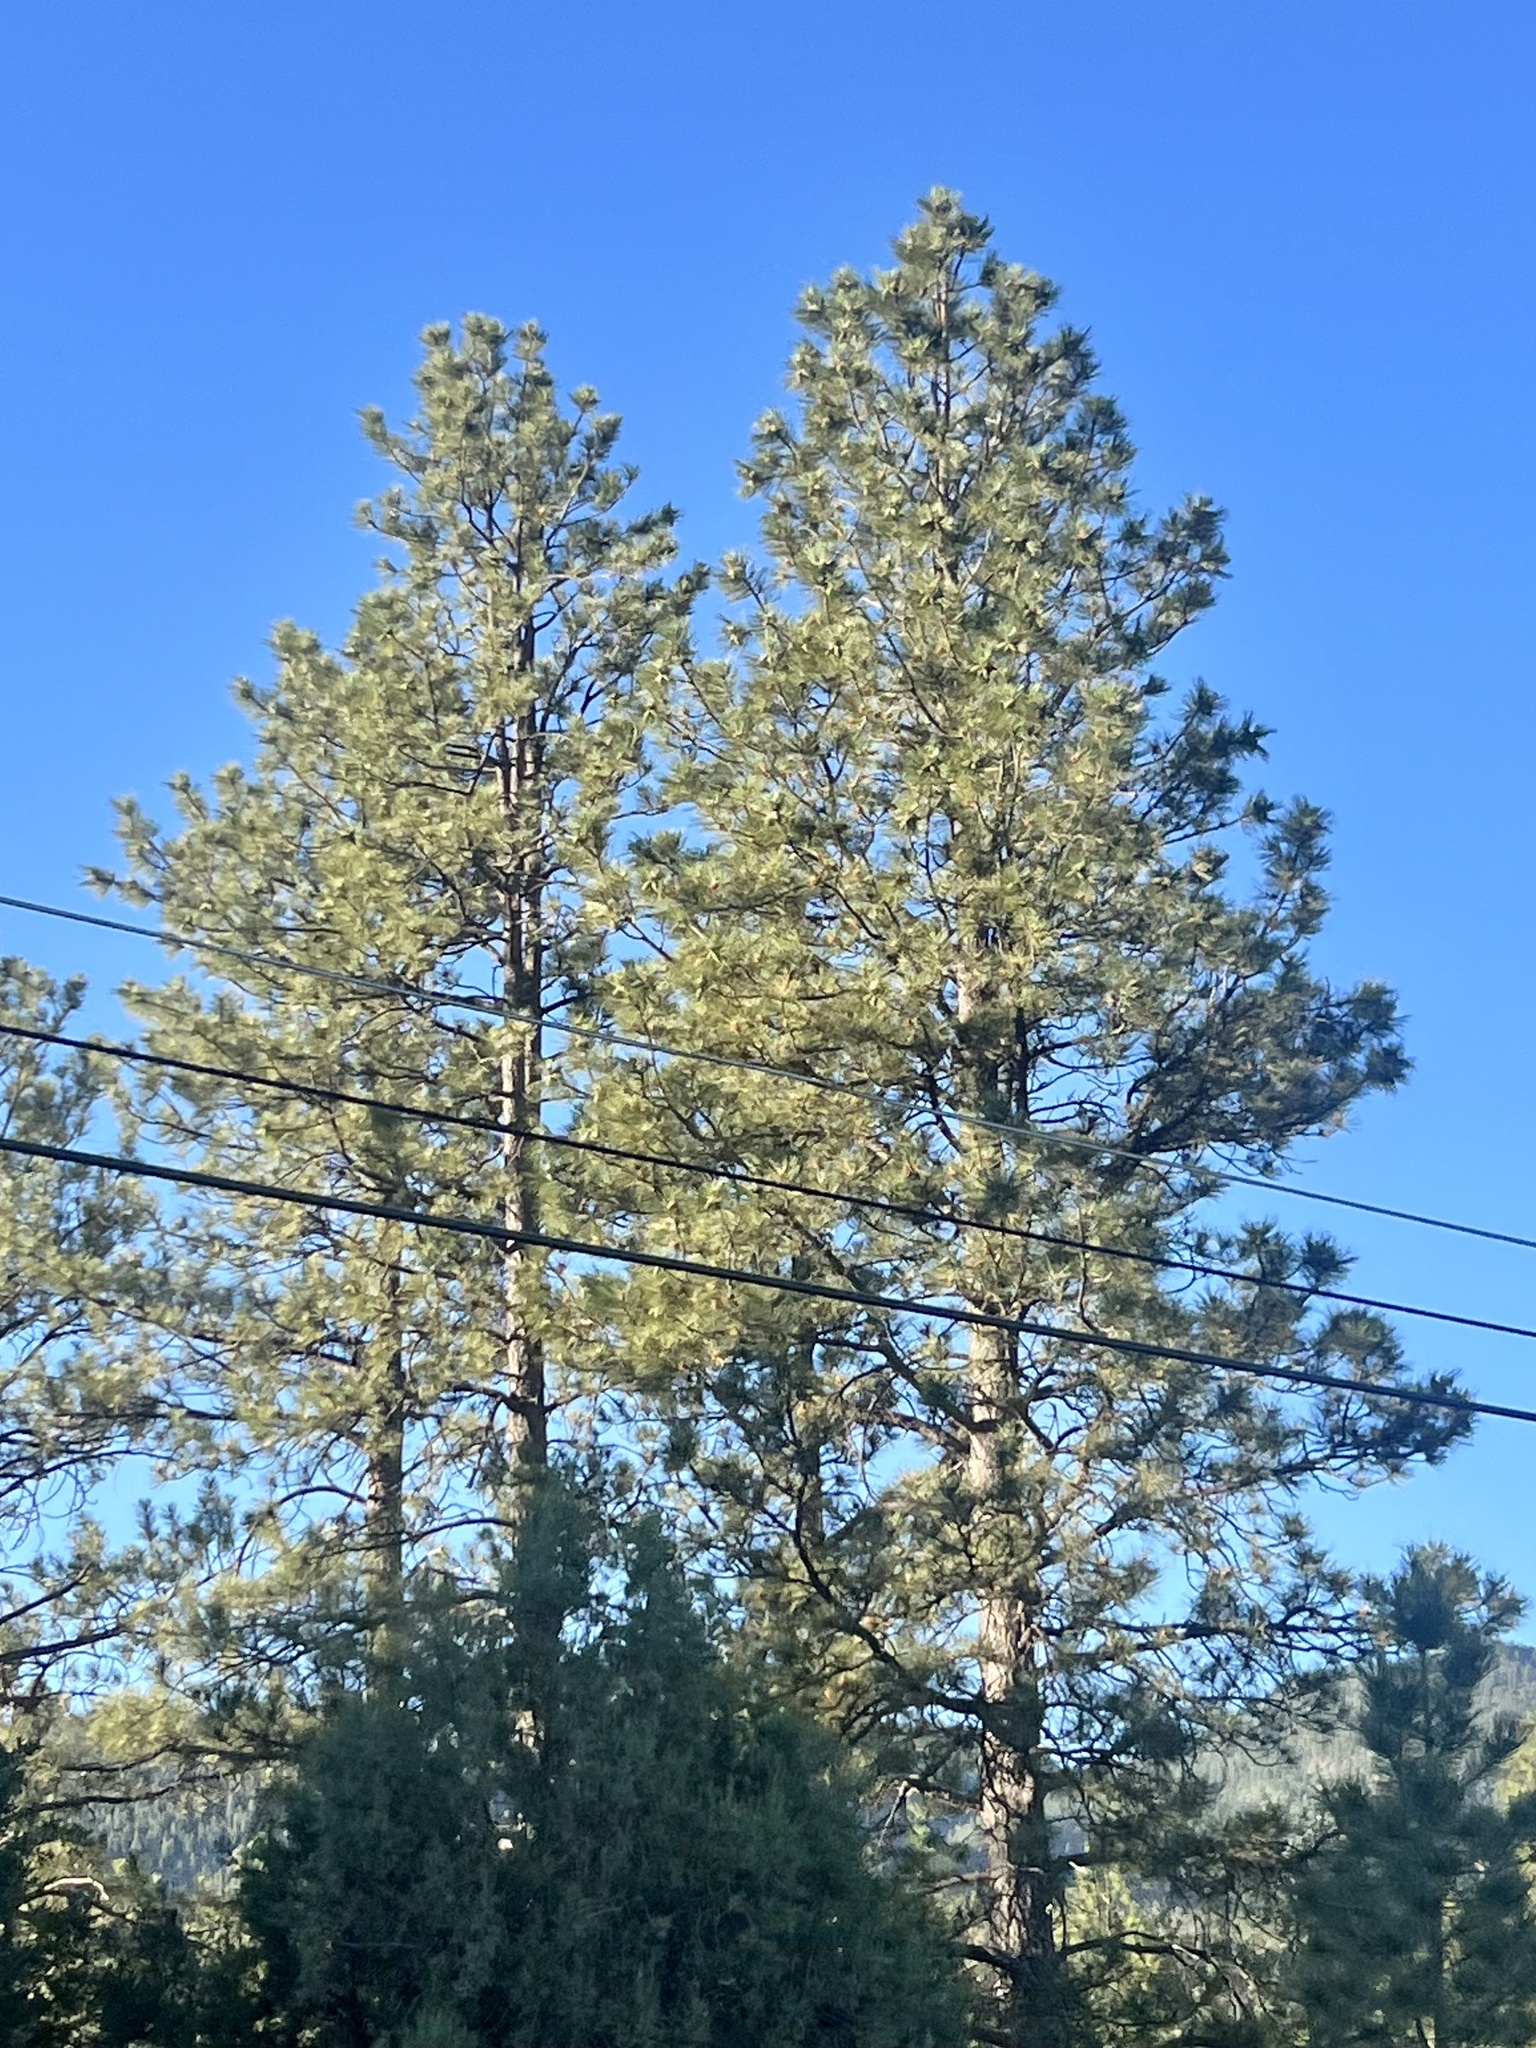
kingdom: Plantae
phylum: Tracheophyta
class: Pinopsida
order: Pinales
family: Pinaceae
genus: Pinus
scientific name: Pinus ponderosa
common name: Western yellow-pine
